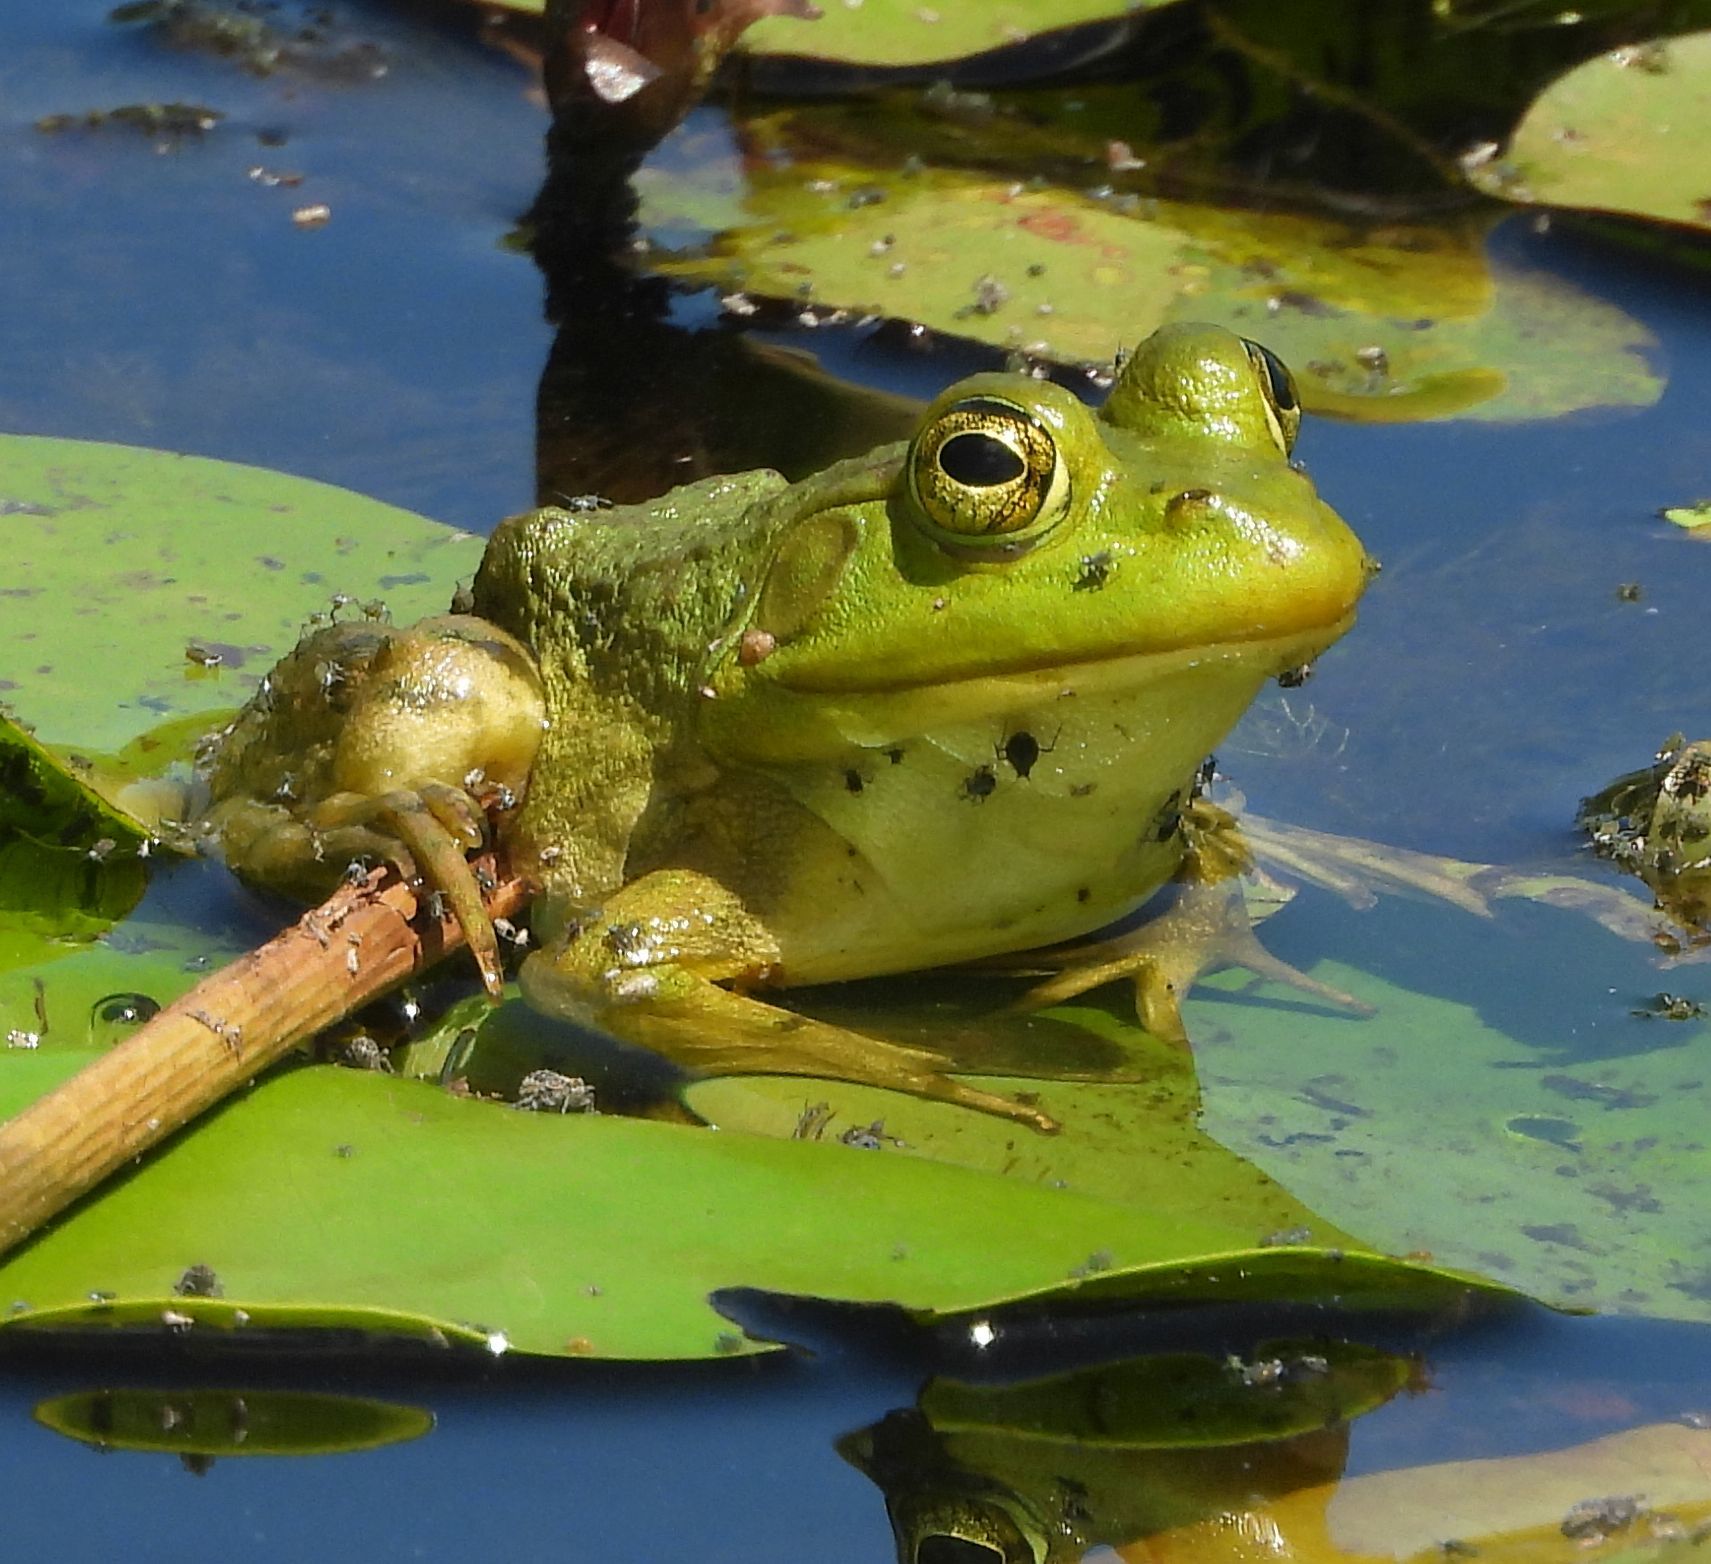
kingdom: Animalia
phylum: Chordata
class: Amphibia
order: Anura
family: Ranidae
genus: Lithobates
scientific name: Lithobates catesbeianus
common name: American bullfrog
